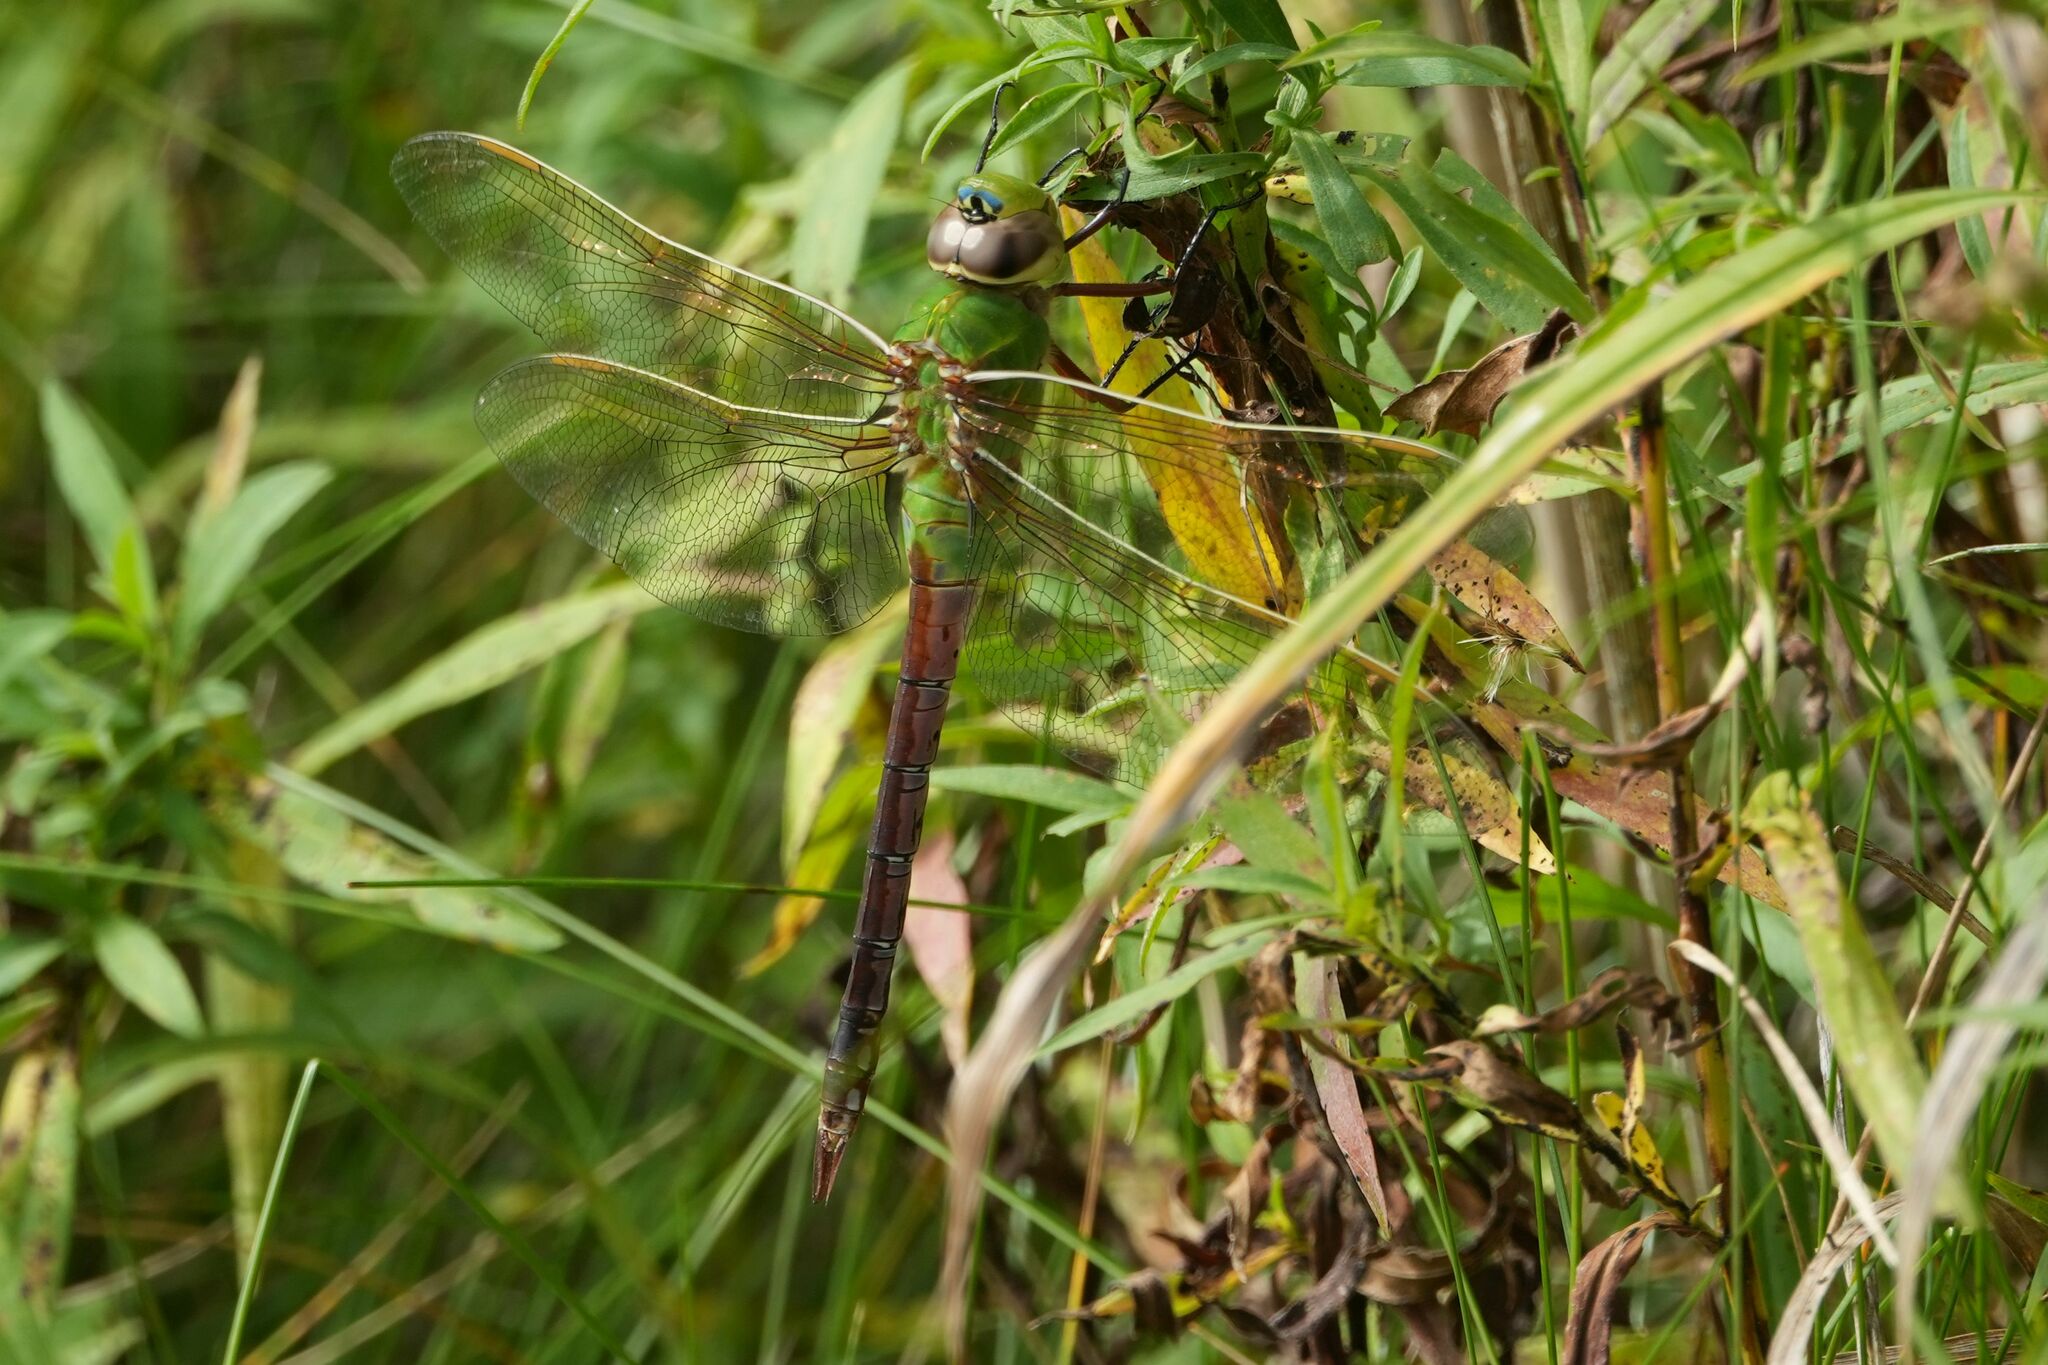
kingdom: Animalia
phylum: Arthropoda
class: Insecta
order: Odonata
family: Aeshnidae
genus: Anax
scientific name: Anax junius
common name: Common green darner
